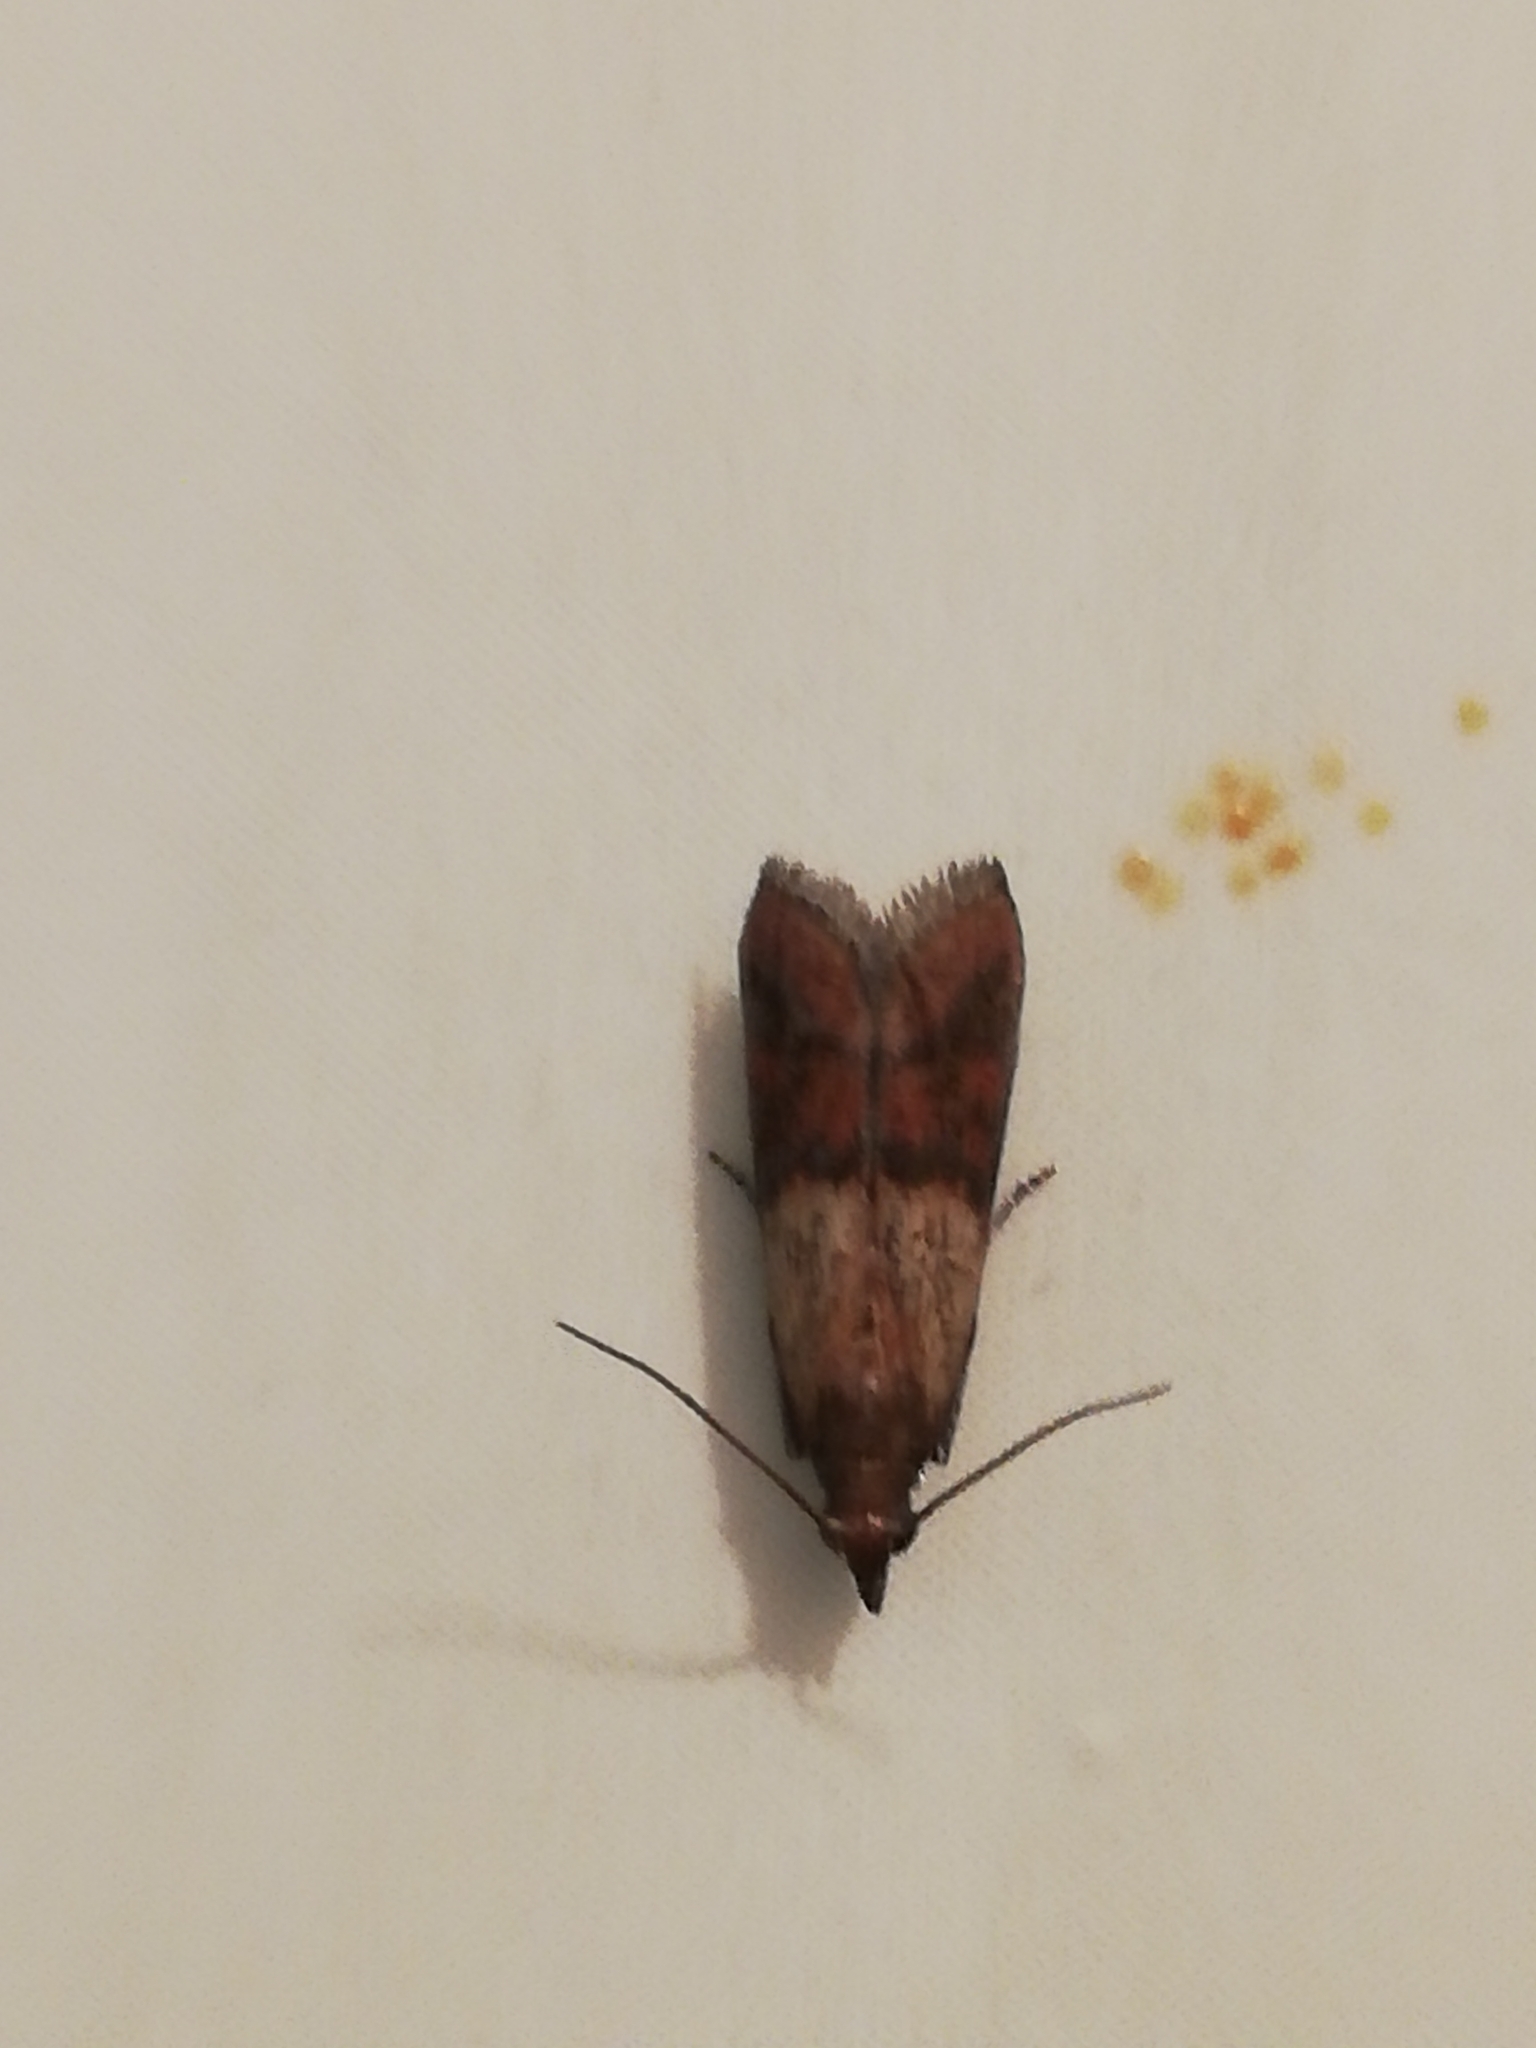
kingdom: Animalia
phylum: Arthropoda
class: Insecta
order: Lepidoptera
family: Pyralidae
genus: Plodia
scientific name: Plodia interpunctella
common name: Indian meal moth
